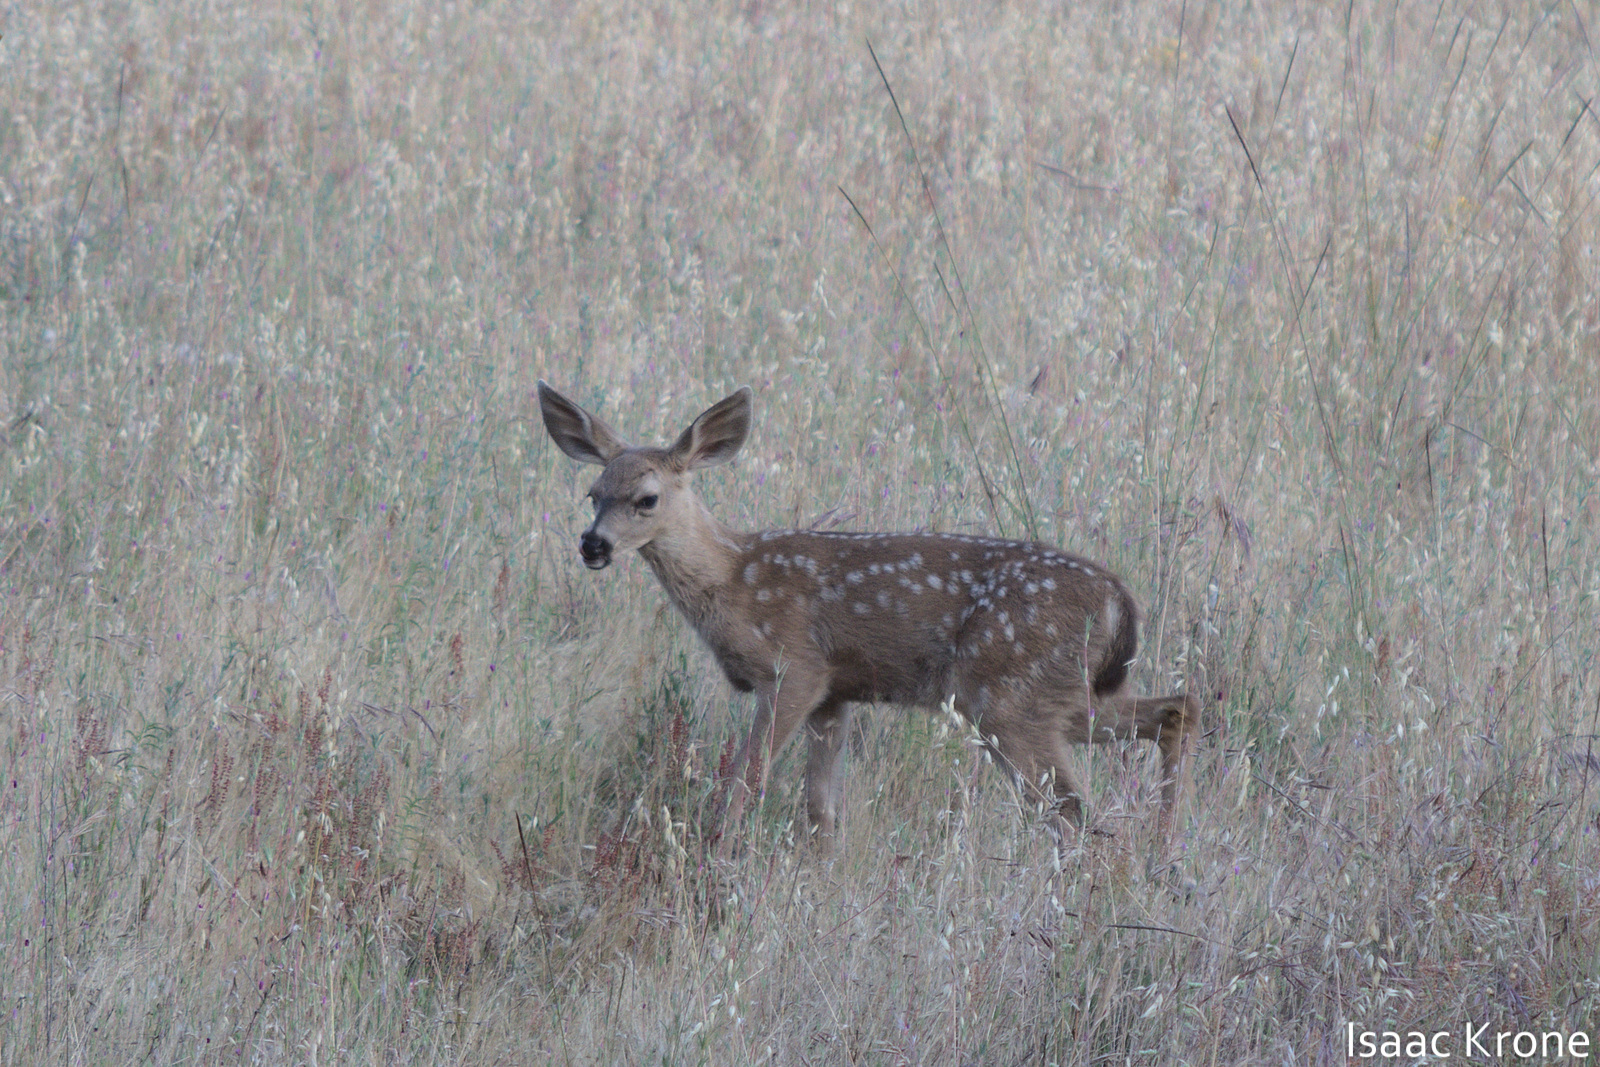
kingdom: Animalia
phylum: Chordata
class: Mammalia
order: Artiodactyla
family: Cervidae
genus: Odocoileus
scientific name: Odocoileus hemionus
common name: Mule deer
